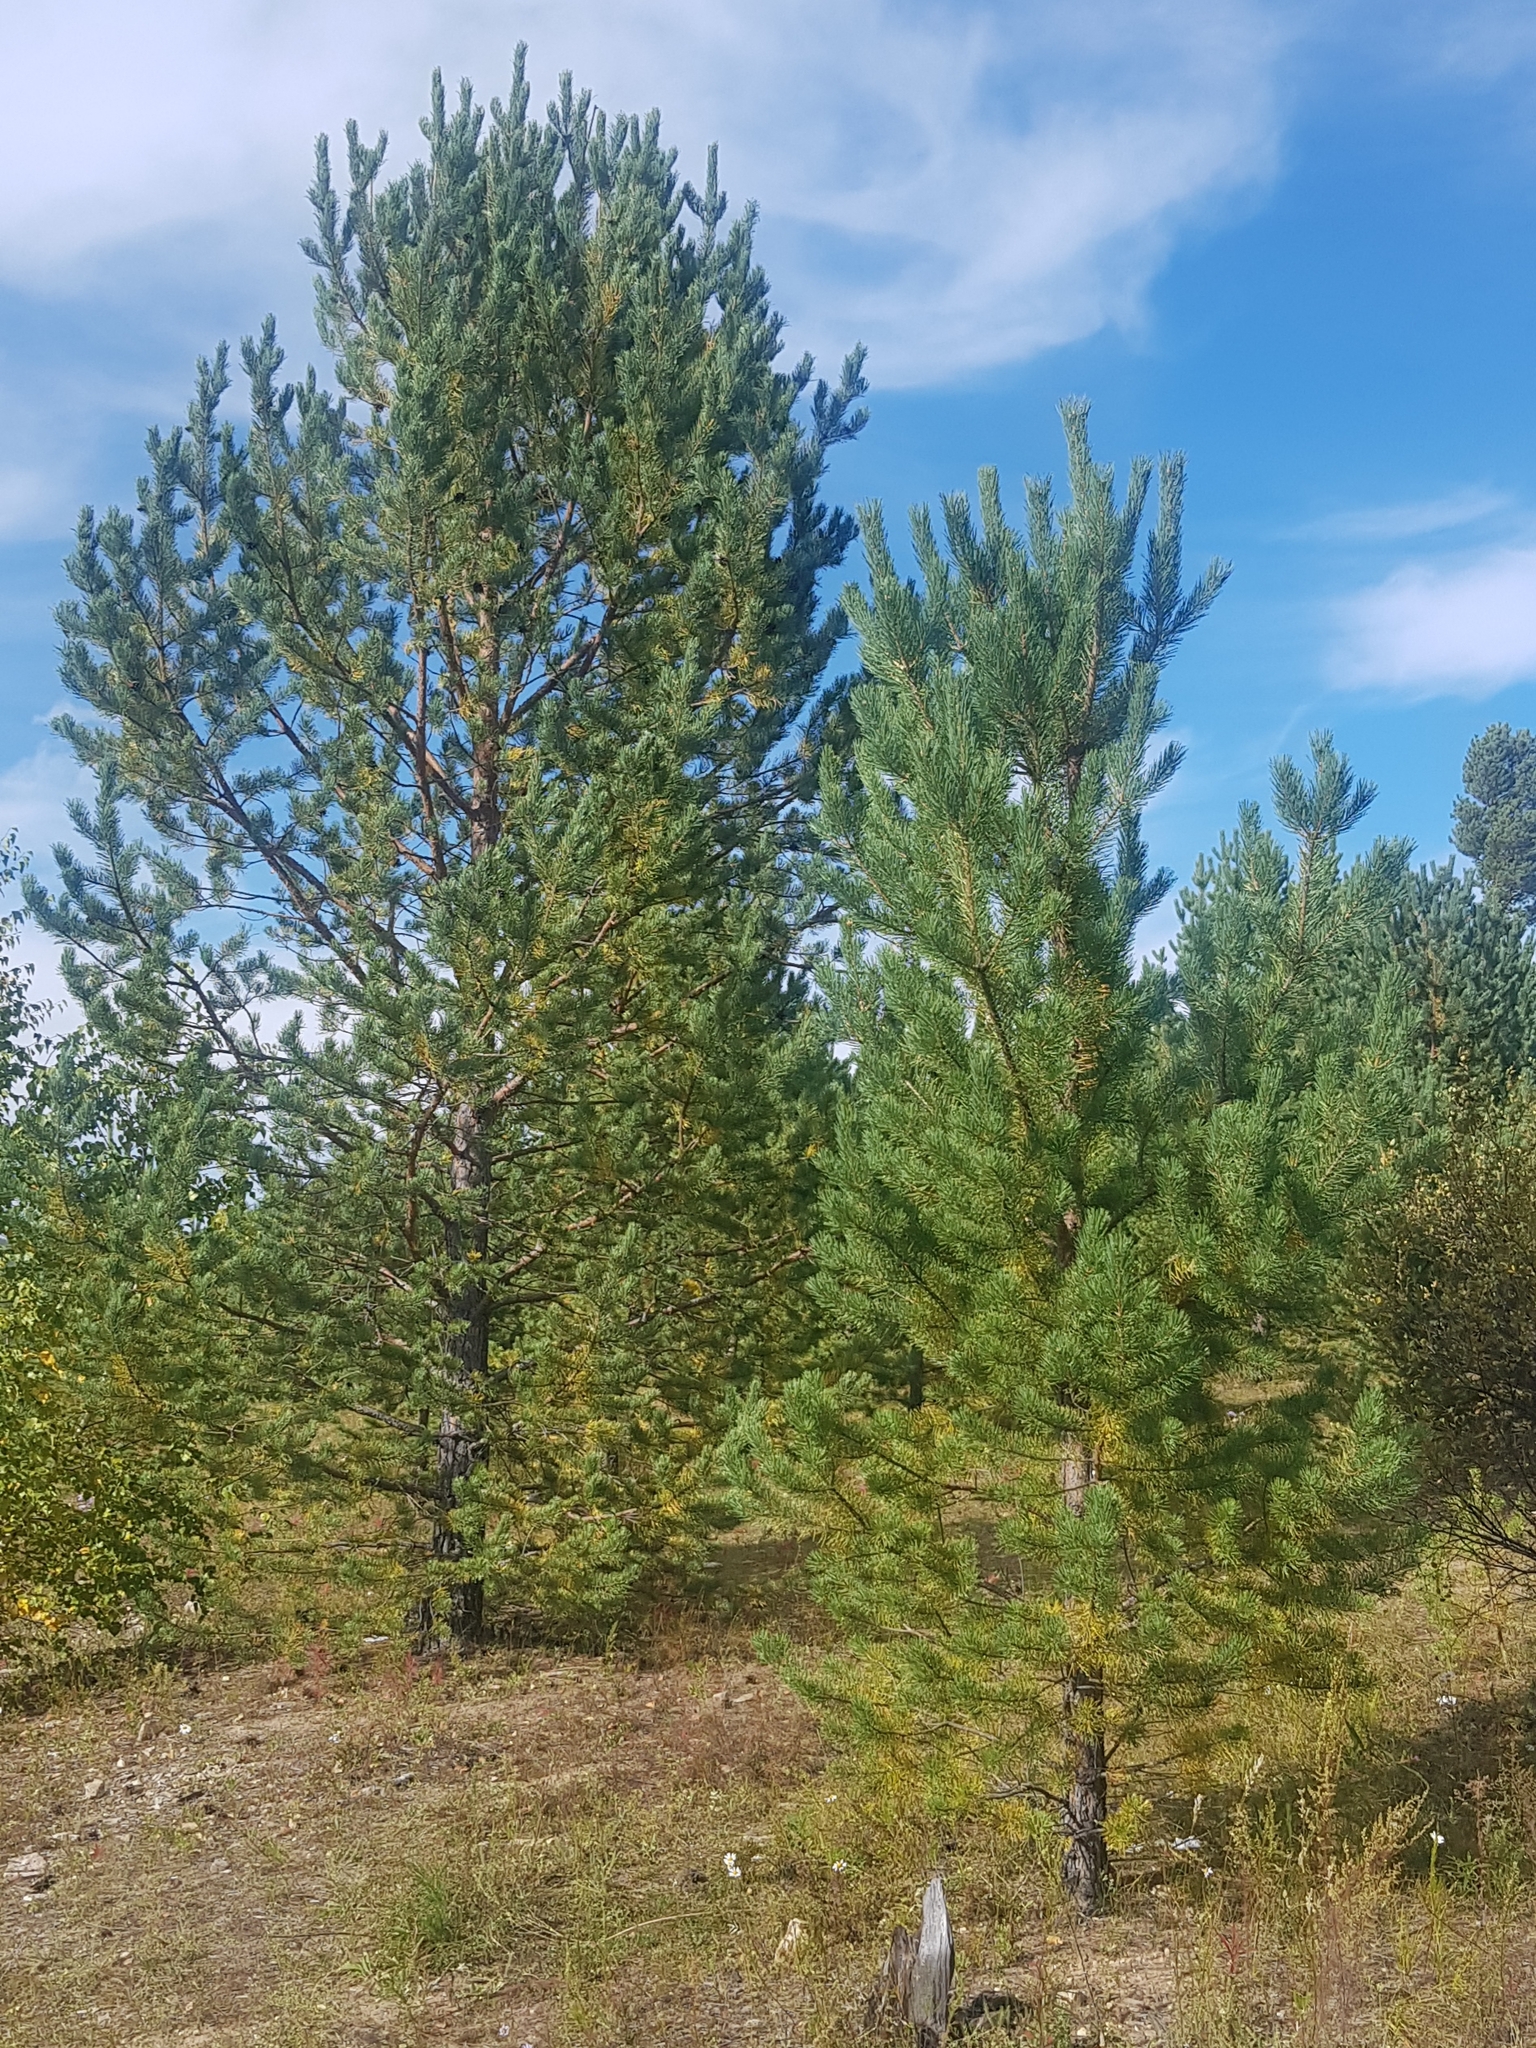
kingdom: Plantae
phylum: Tracheophyta
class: Pinopsida
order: Pinales
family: Pinaceae
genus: Pinus
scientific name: Pinus sylvestris
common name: Scots pine
